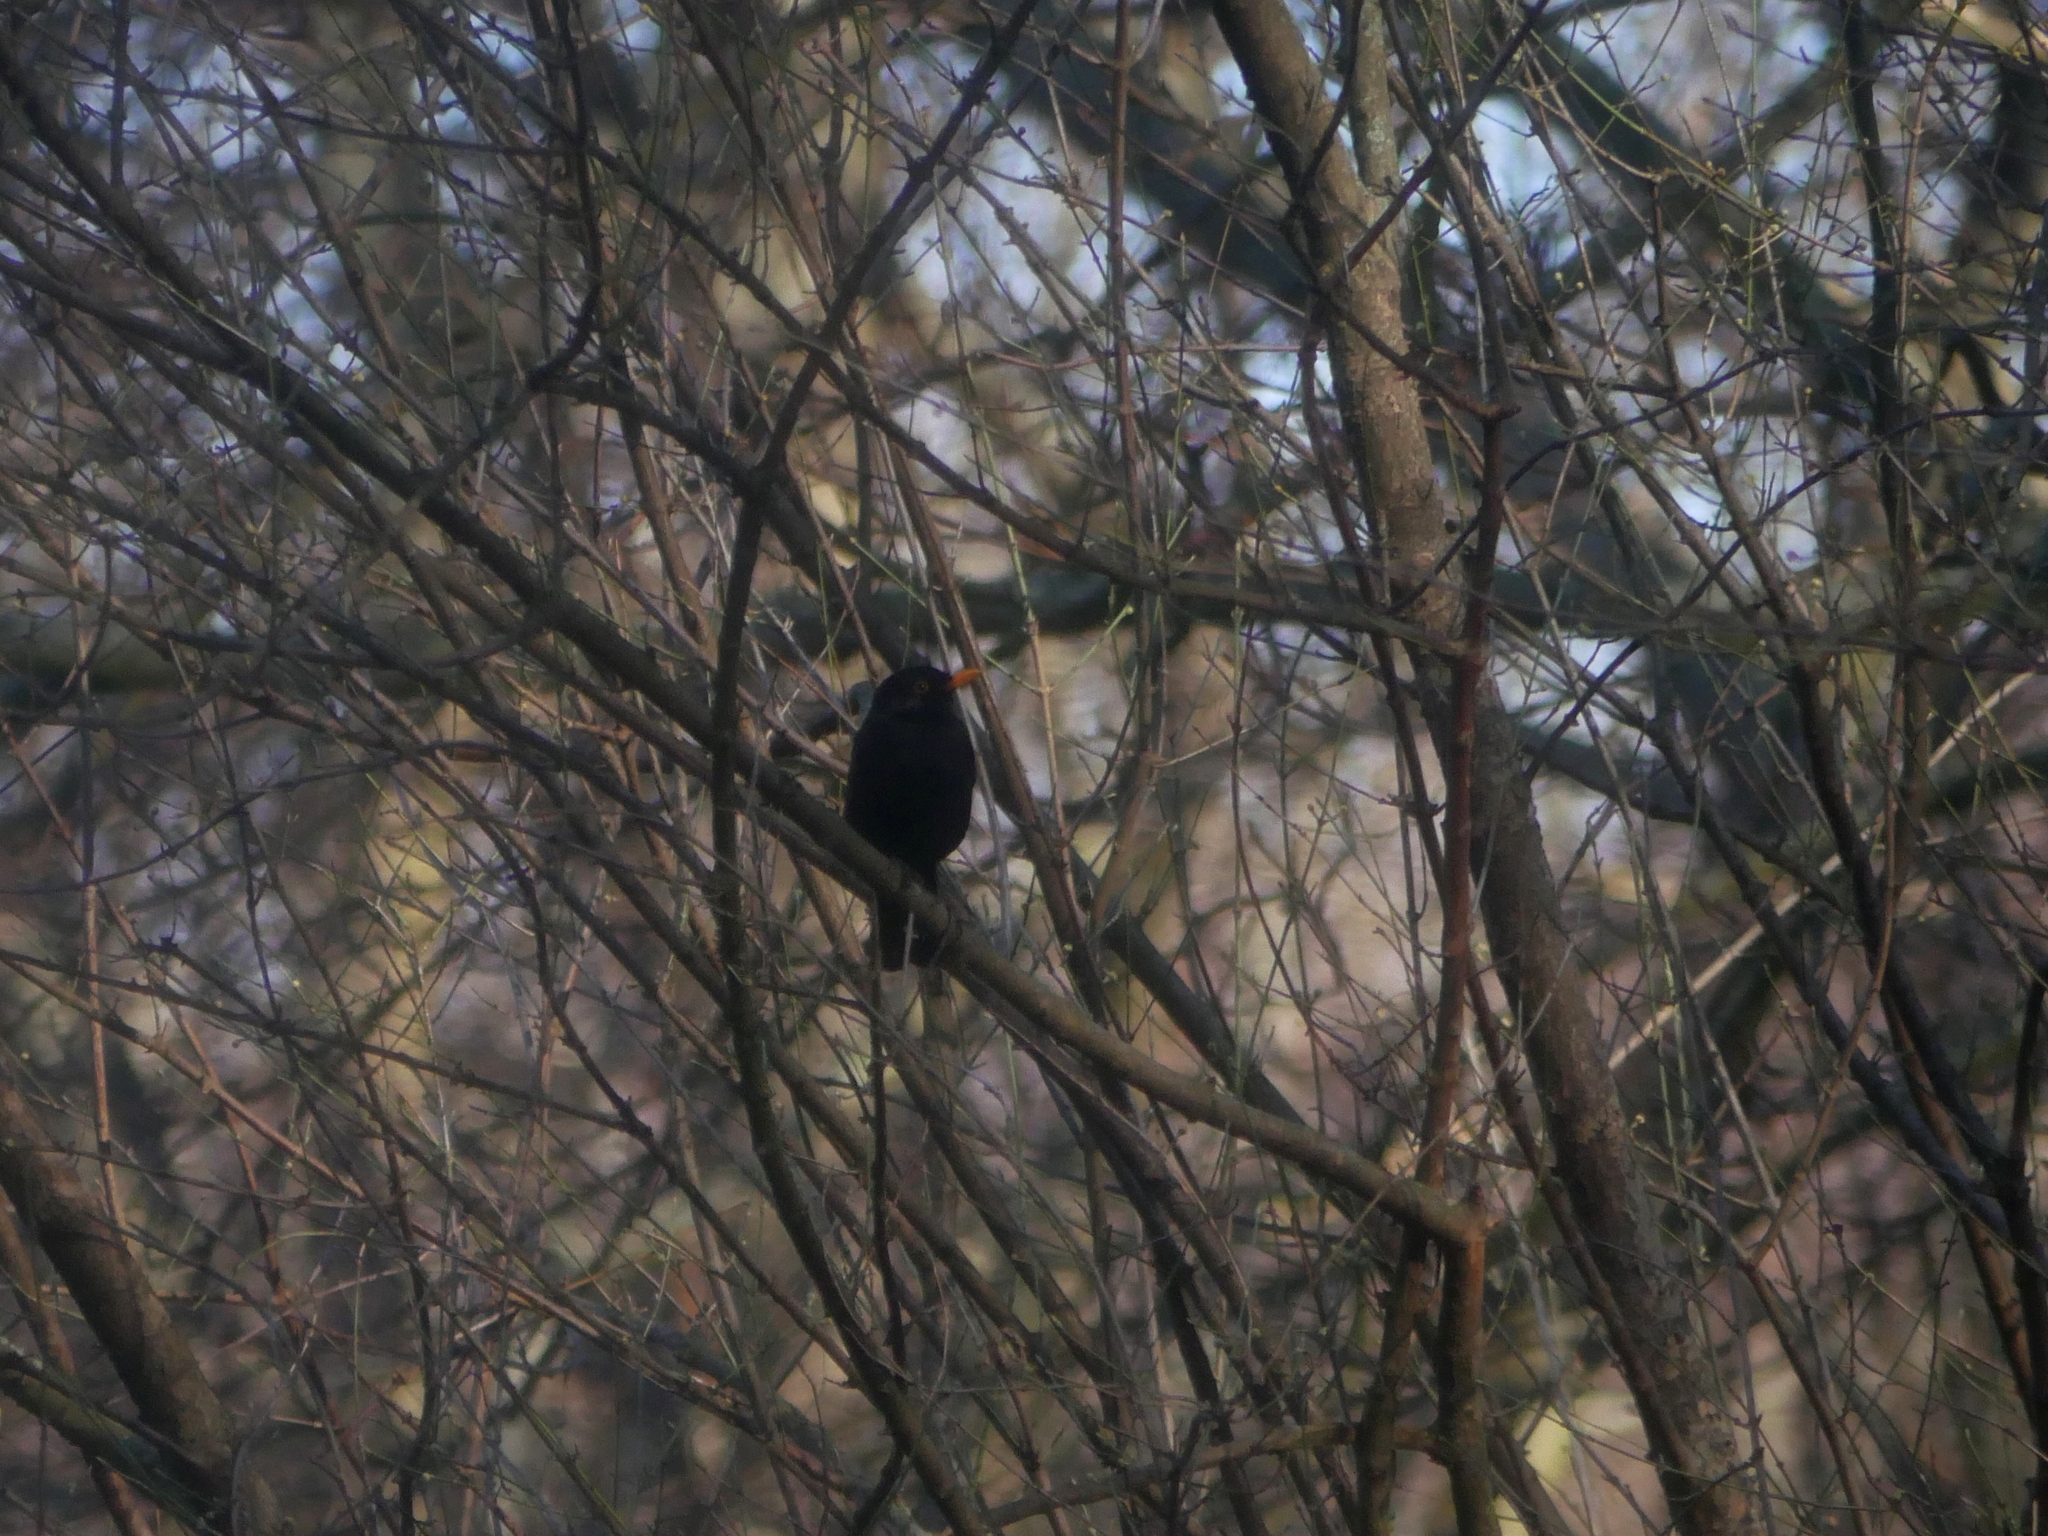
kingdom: Animalia
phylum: Chordata
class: Aves
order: Passeriformes
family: Turdidae
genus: Turdus
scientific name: Turdus merula
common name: Common blackbird
